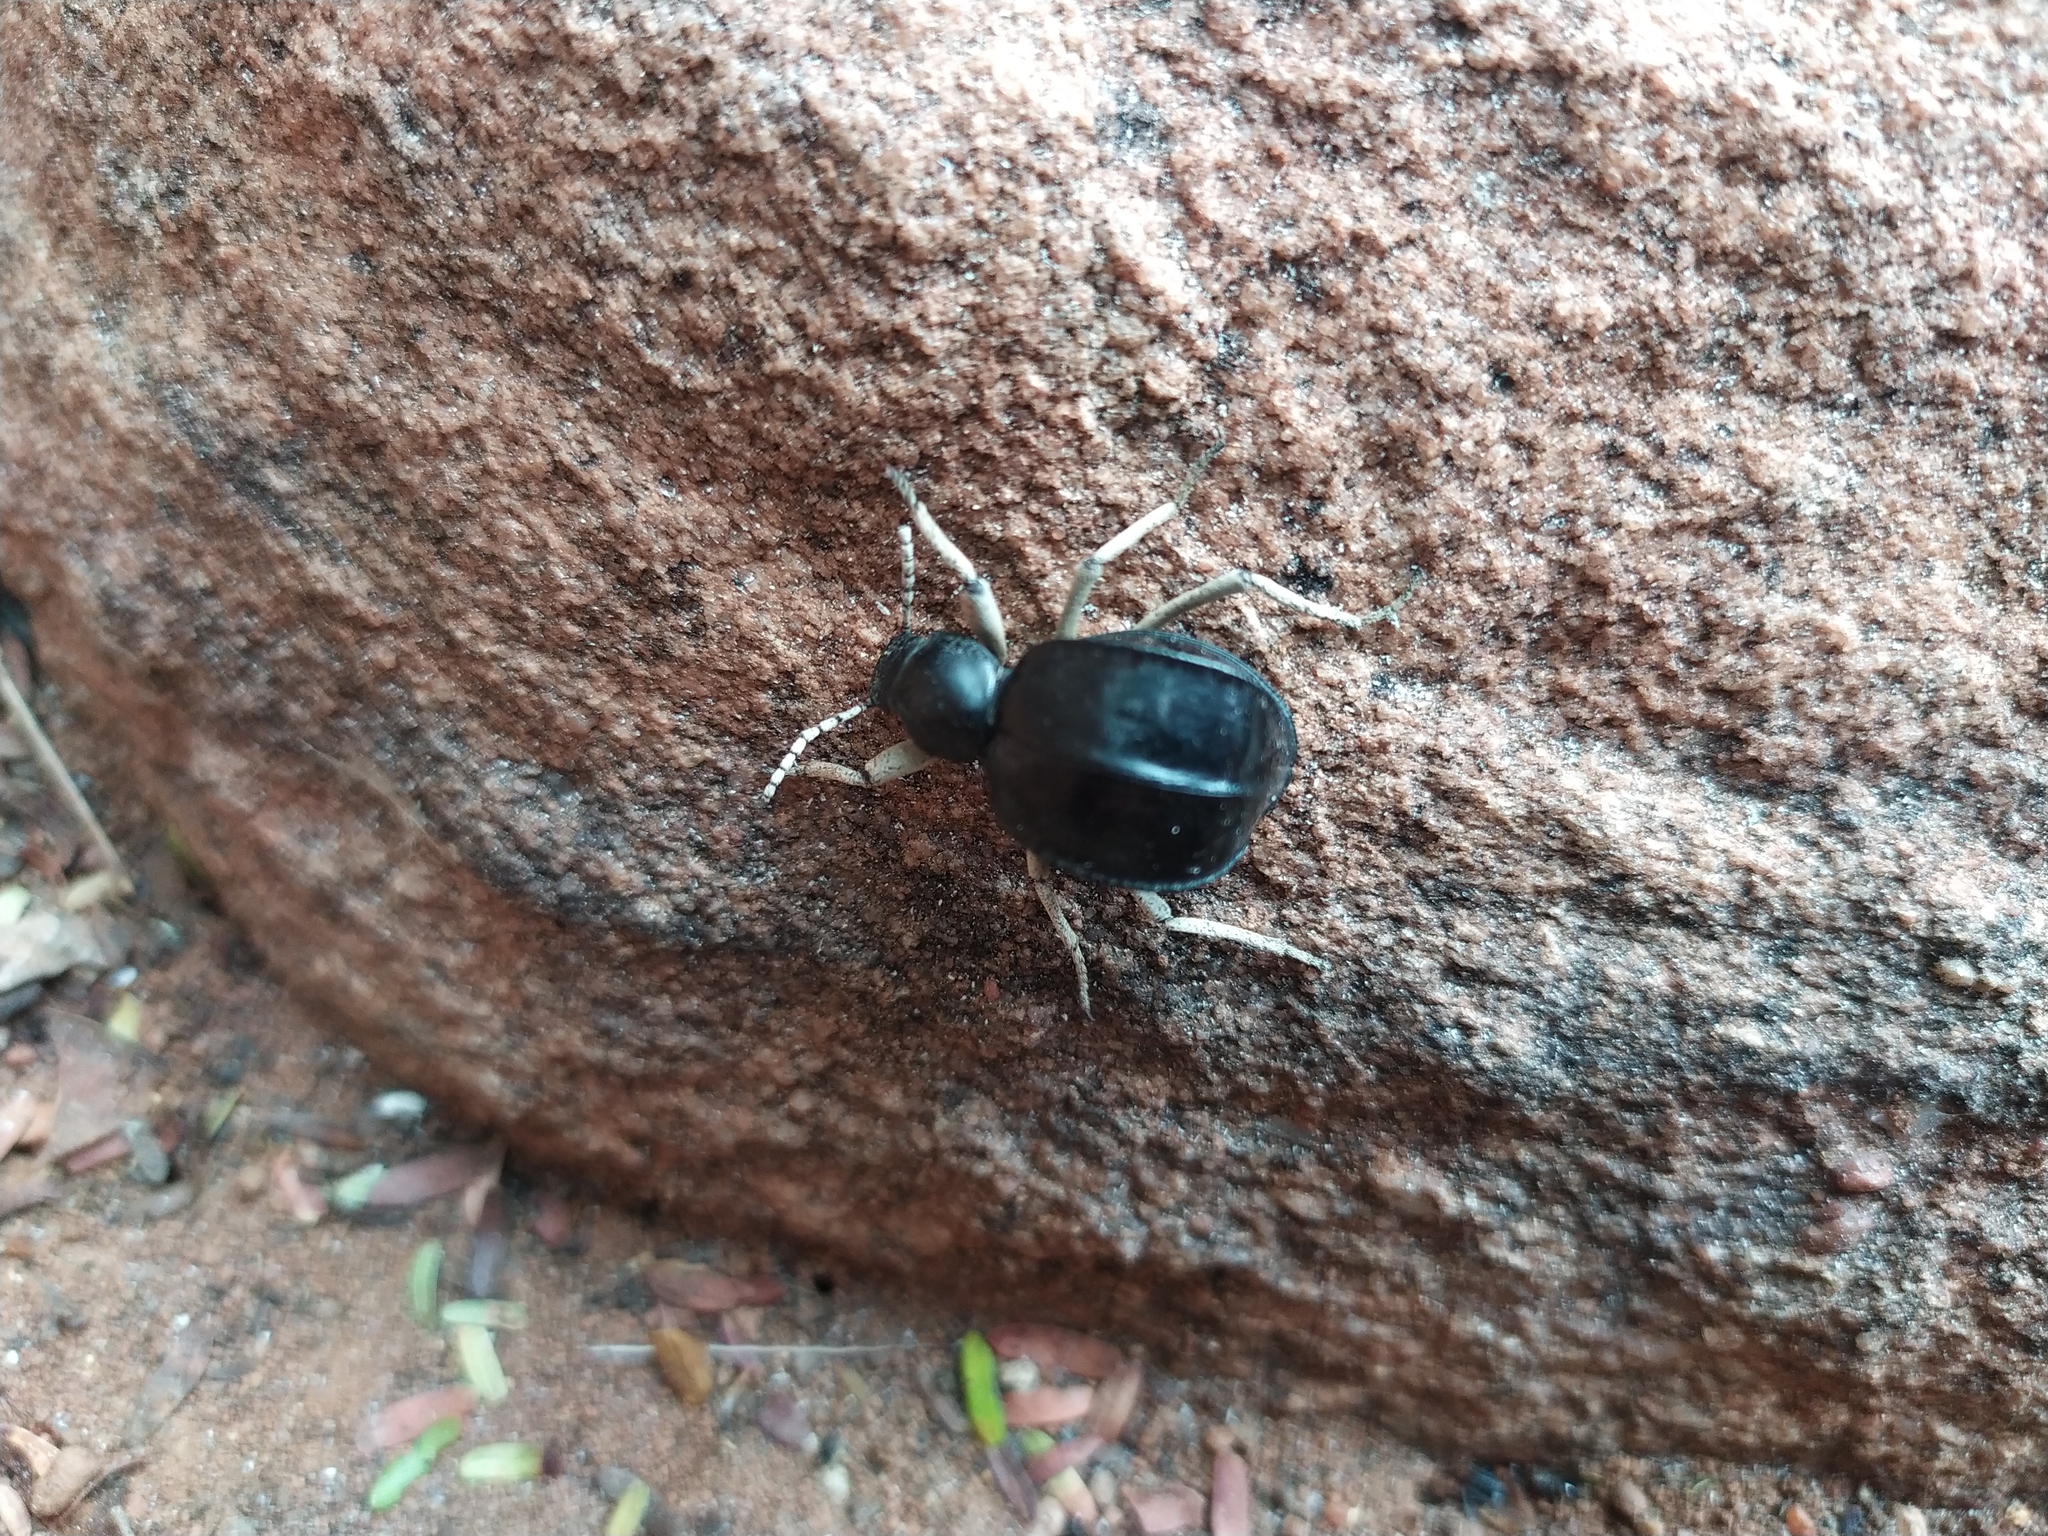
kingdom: Animalia
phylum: Arthropoda
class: Insecta
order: Coleoptera
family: Tenebrionidae
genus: Dichtha
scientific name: Dichtha cubica
